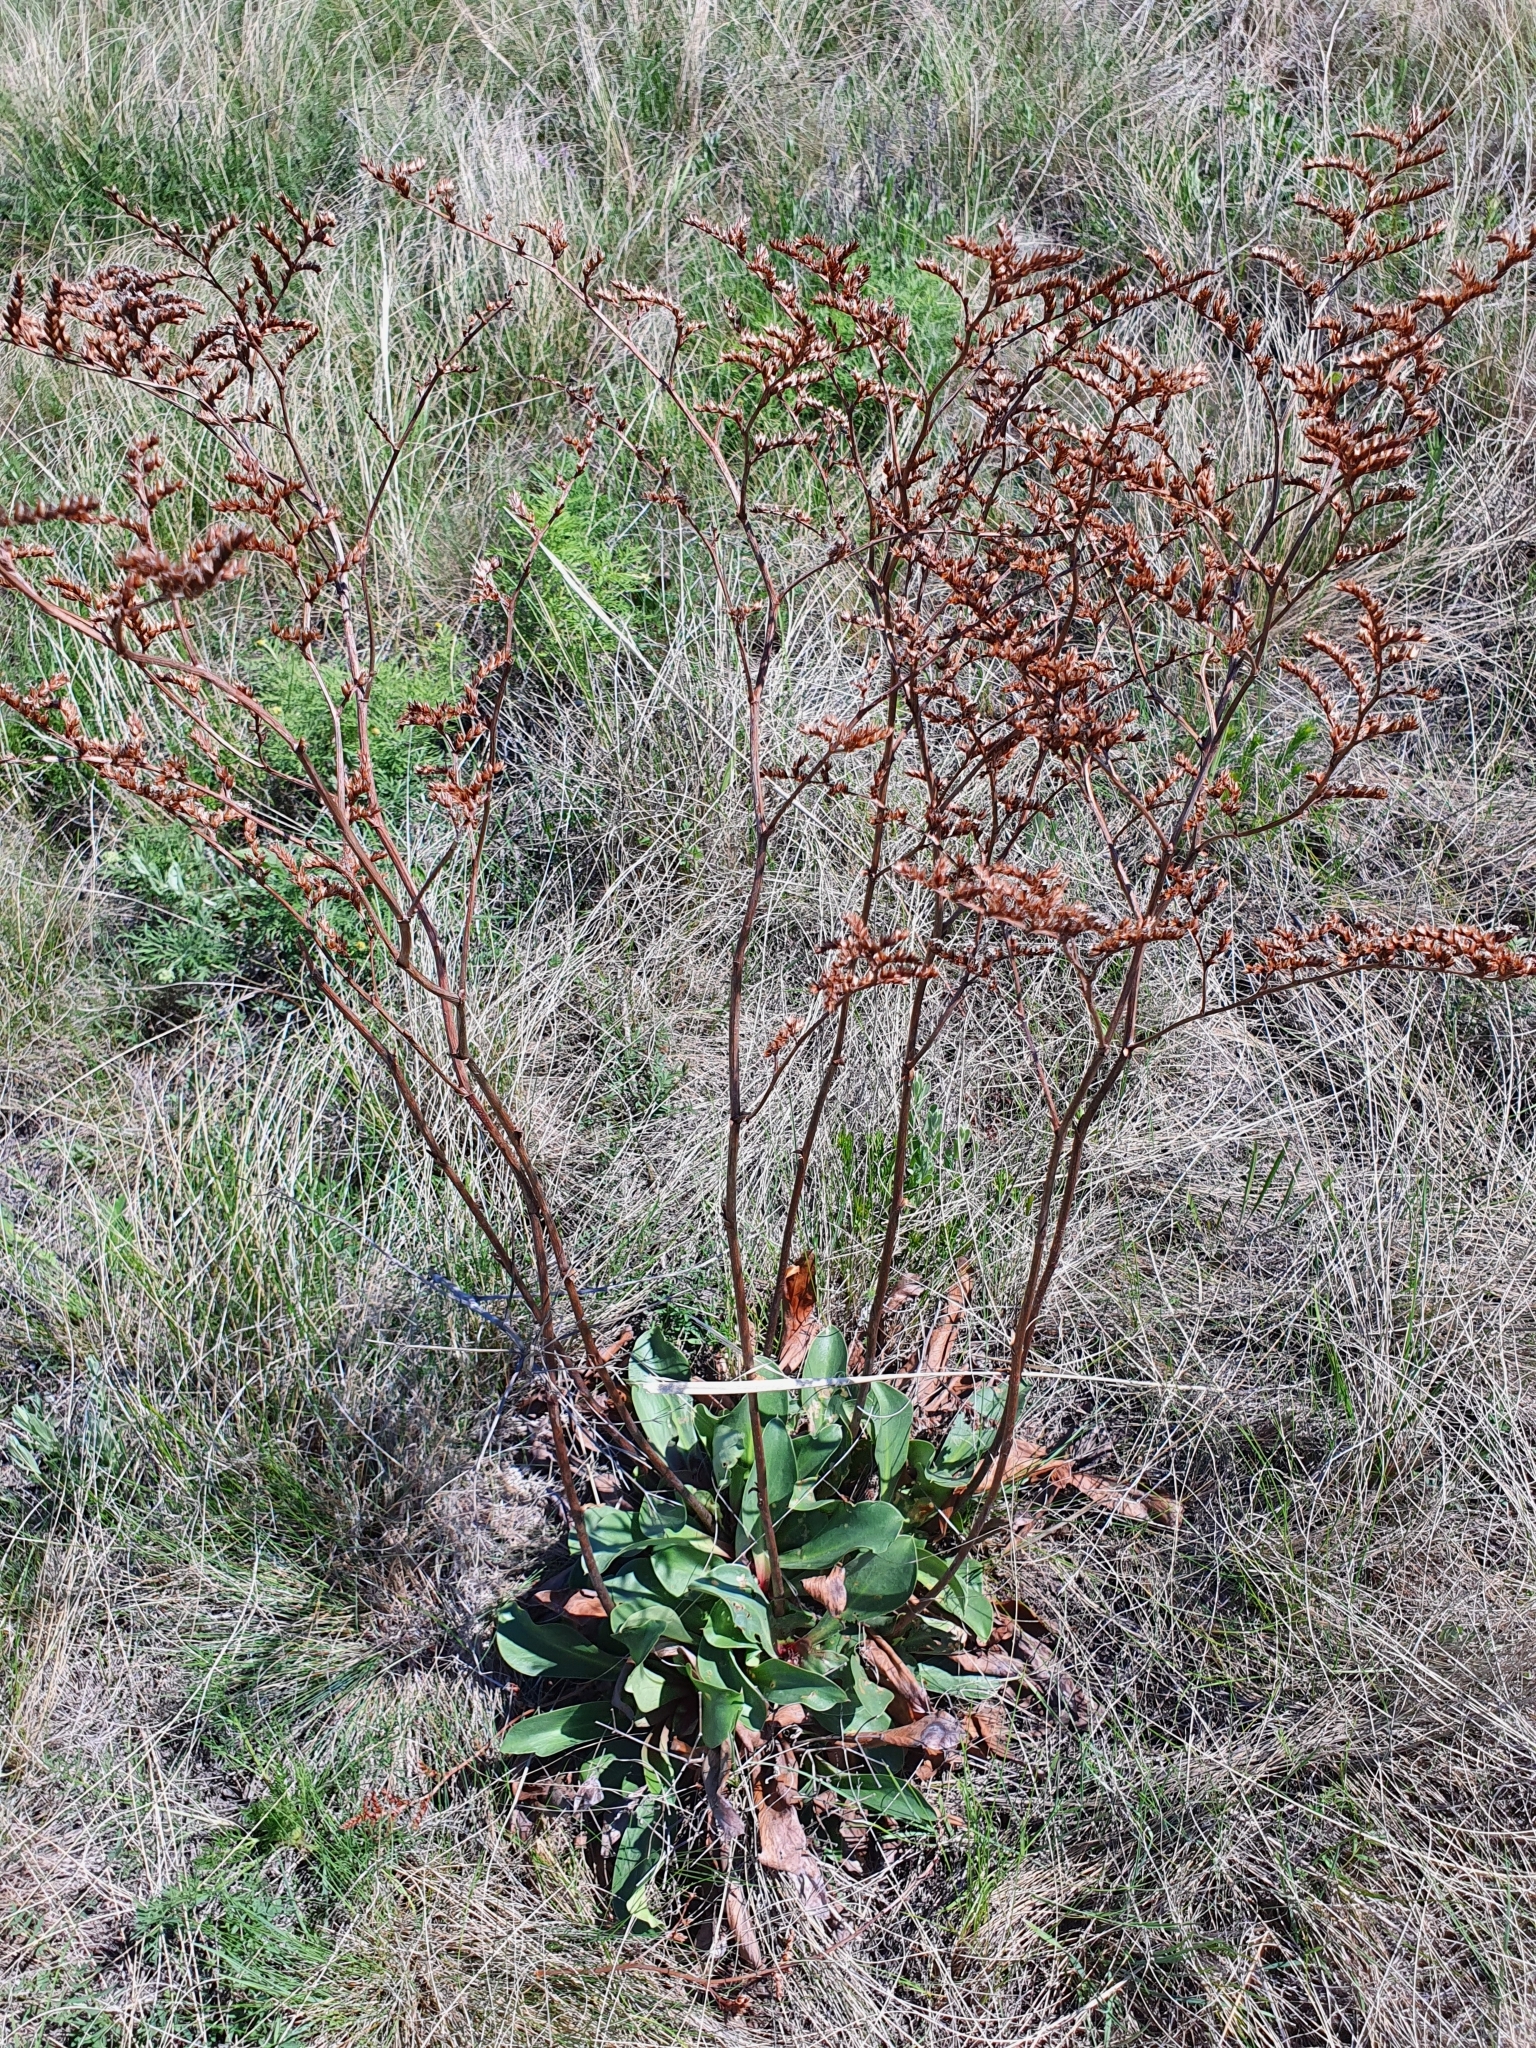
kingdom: Plantae
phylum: Tracheophyta
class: Magnoliopsida
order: Caryophyllales
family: Plumbaginaceae
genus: Goniolimon
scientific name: Goniolimon elatum
